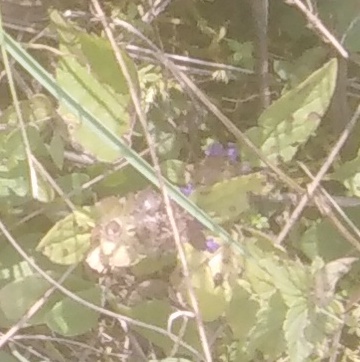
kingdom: Plantae
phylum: Tracheophyta
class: Magnoliopsida
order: Lamiales
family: Lamiaceae
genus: Prunella
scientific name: Prunella vulgaris
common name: Heal-all
